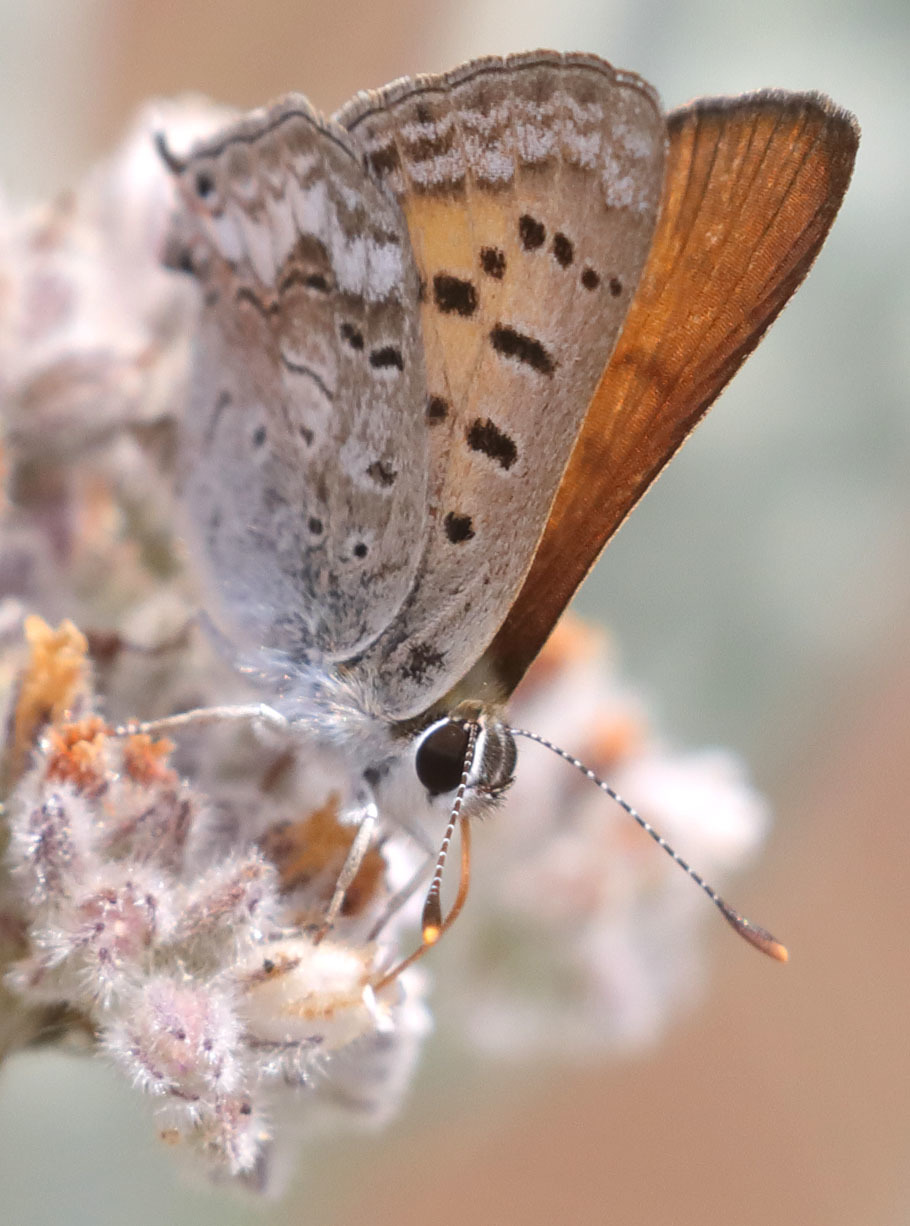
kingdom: Animalia
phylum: Arthropoda
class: Insecta
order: Lepidoptera
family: Lycaenidae
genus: Tharsalea
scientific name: Tharsalea arota
